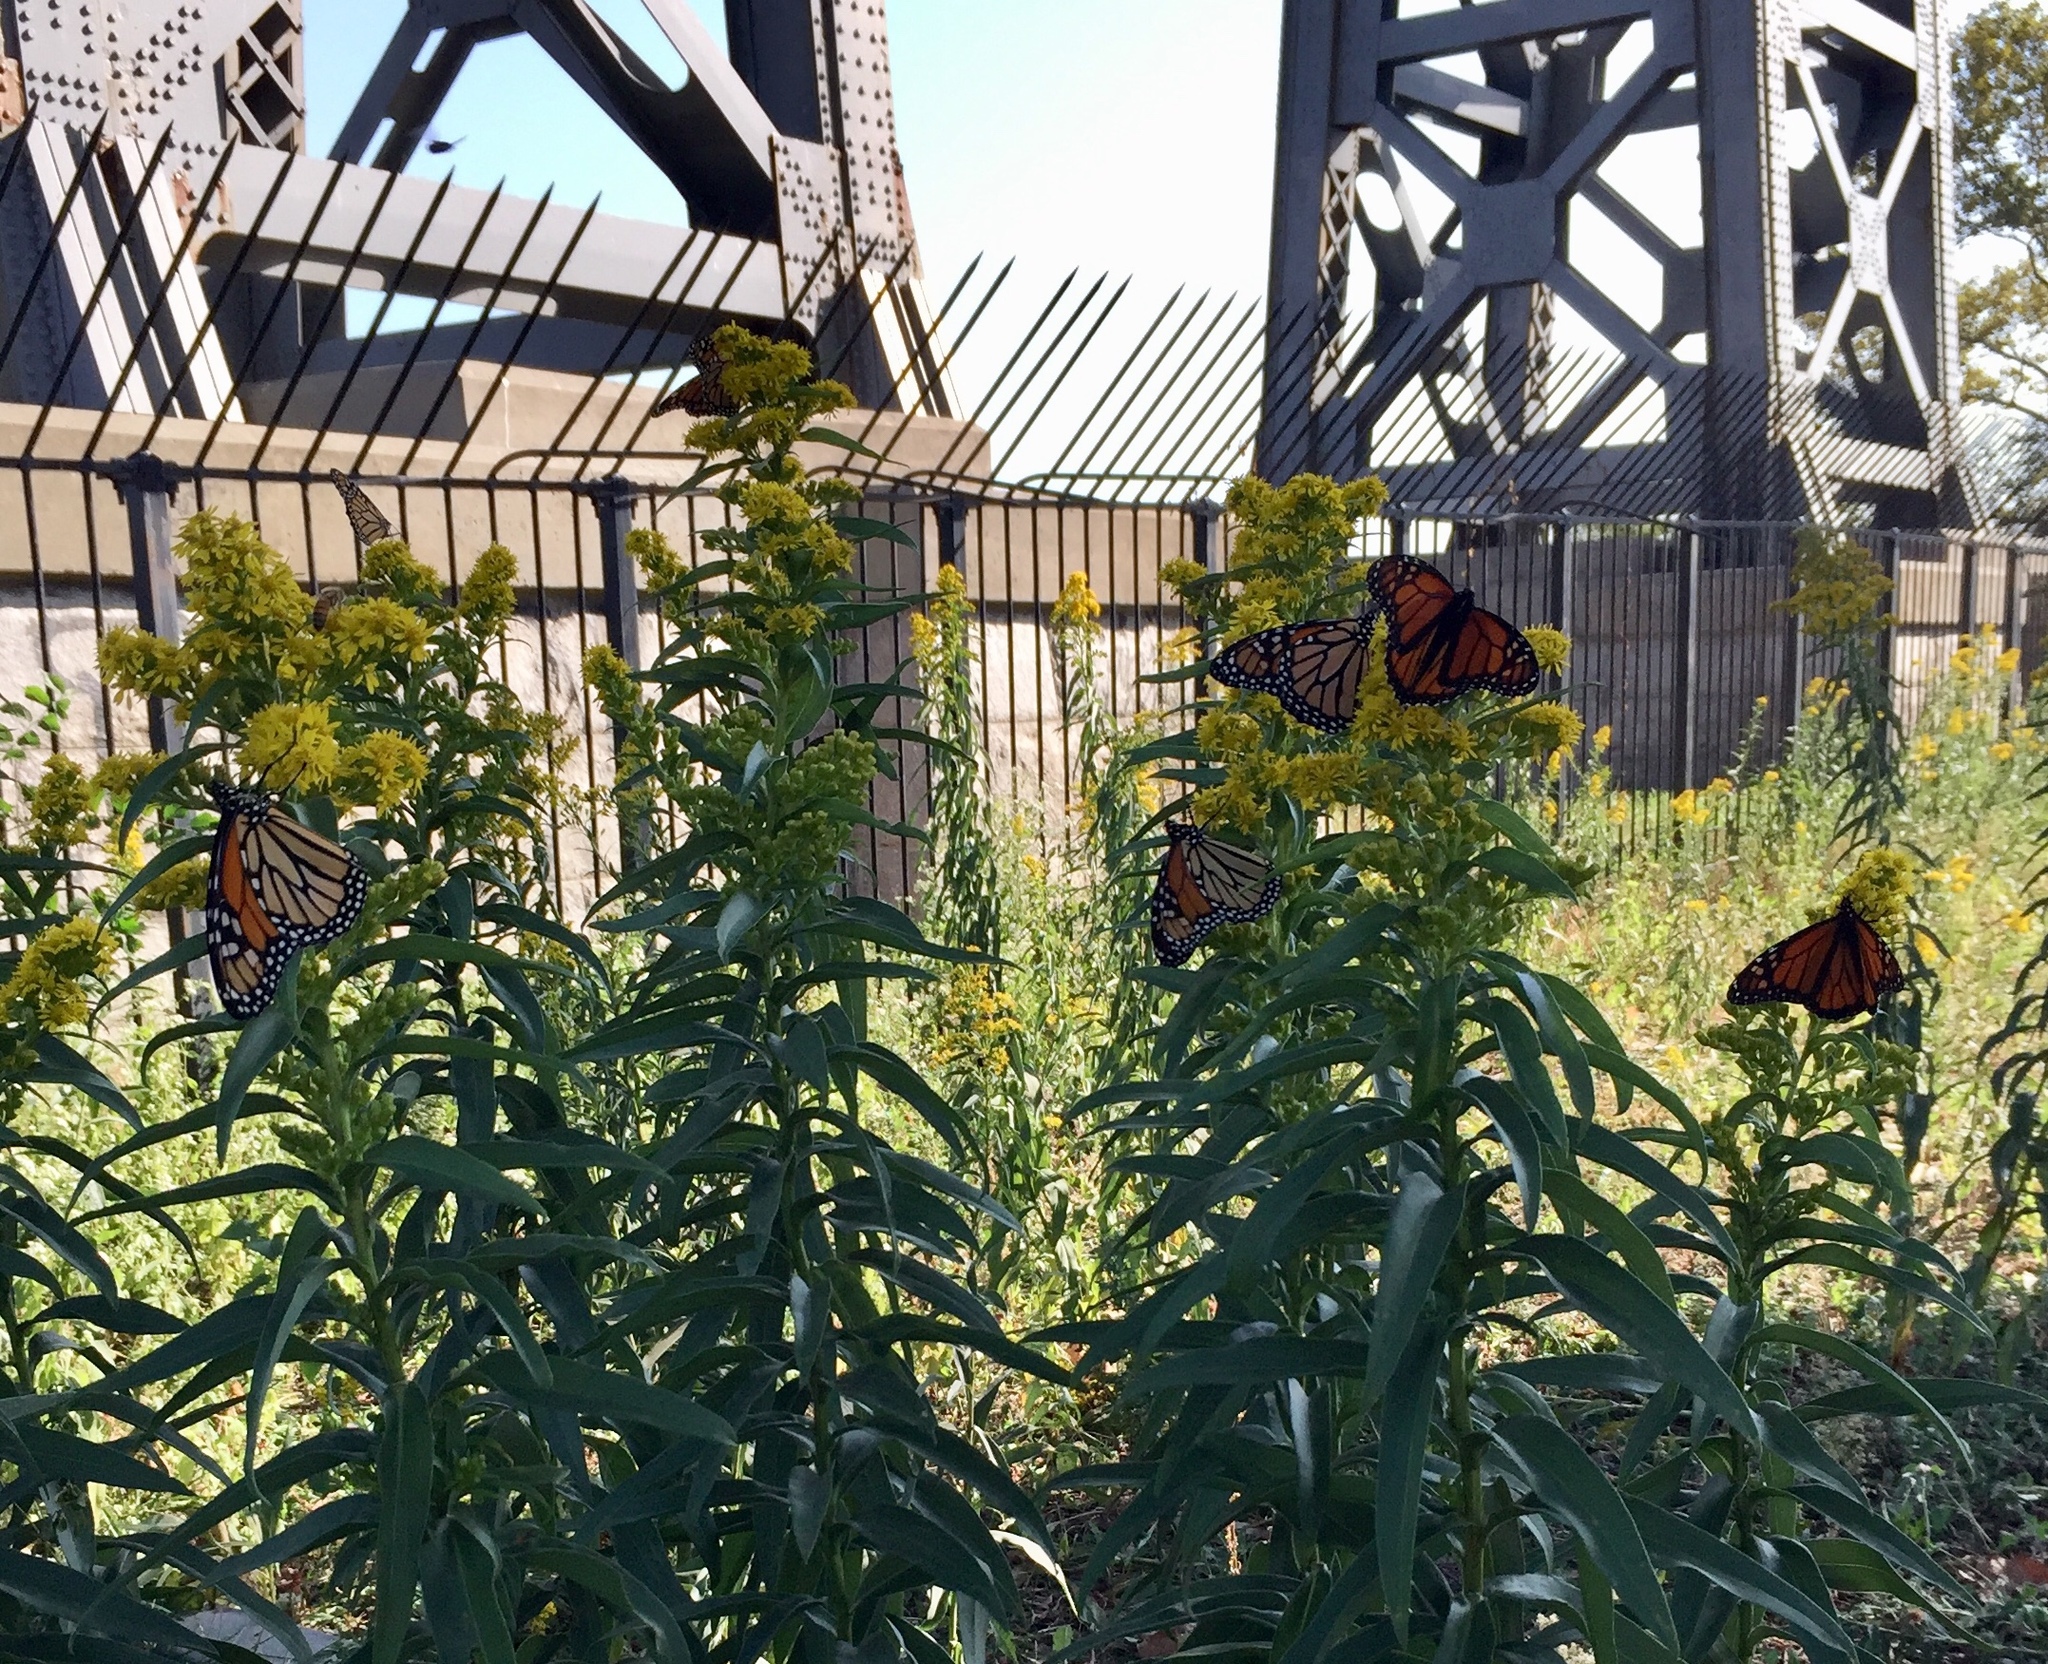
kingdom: Animalia
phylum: Arthropoda
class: Insecta
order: Lepidoptera
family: Nymphalidae
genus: Danaus
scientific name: Danaus plexippus
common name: Monarch
